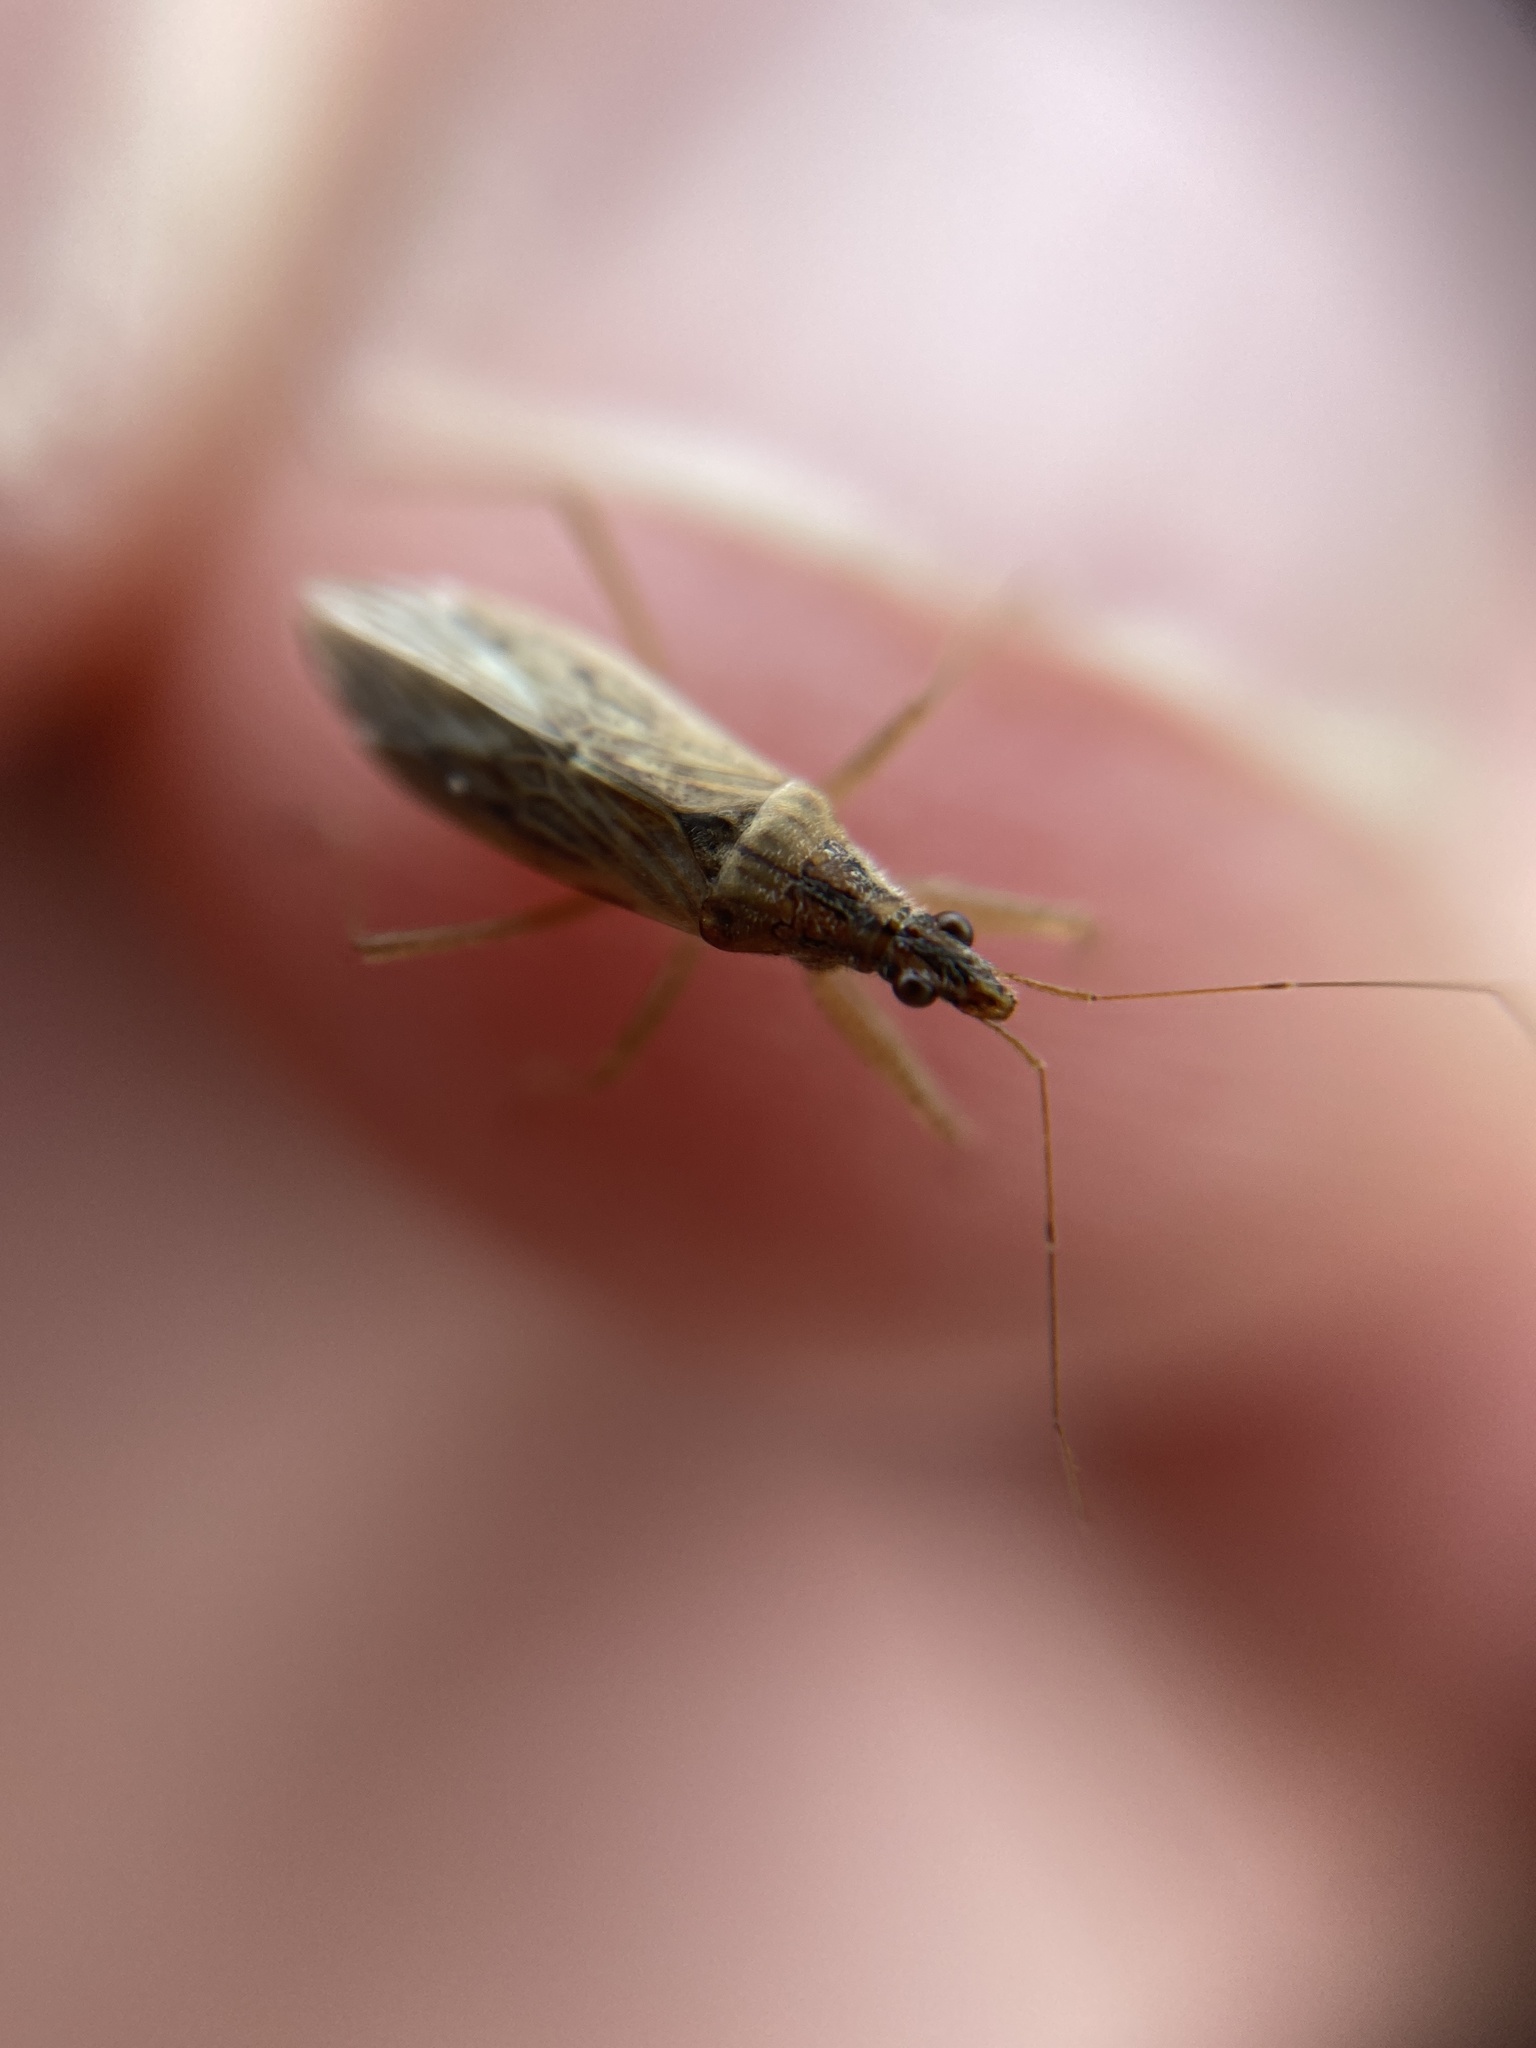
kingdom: Animalia
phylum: Arthropoda
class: Insecta
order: Hemiptera
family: Nabidae
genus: Nabis
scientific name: Nabis
